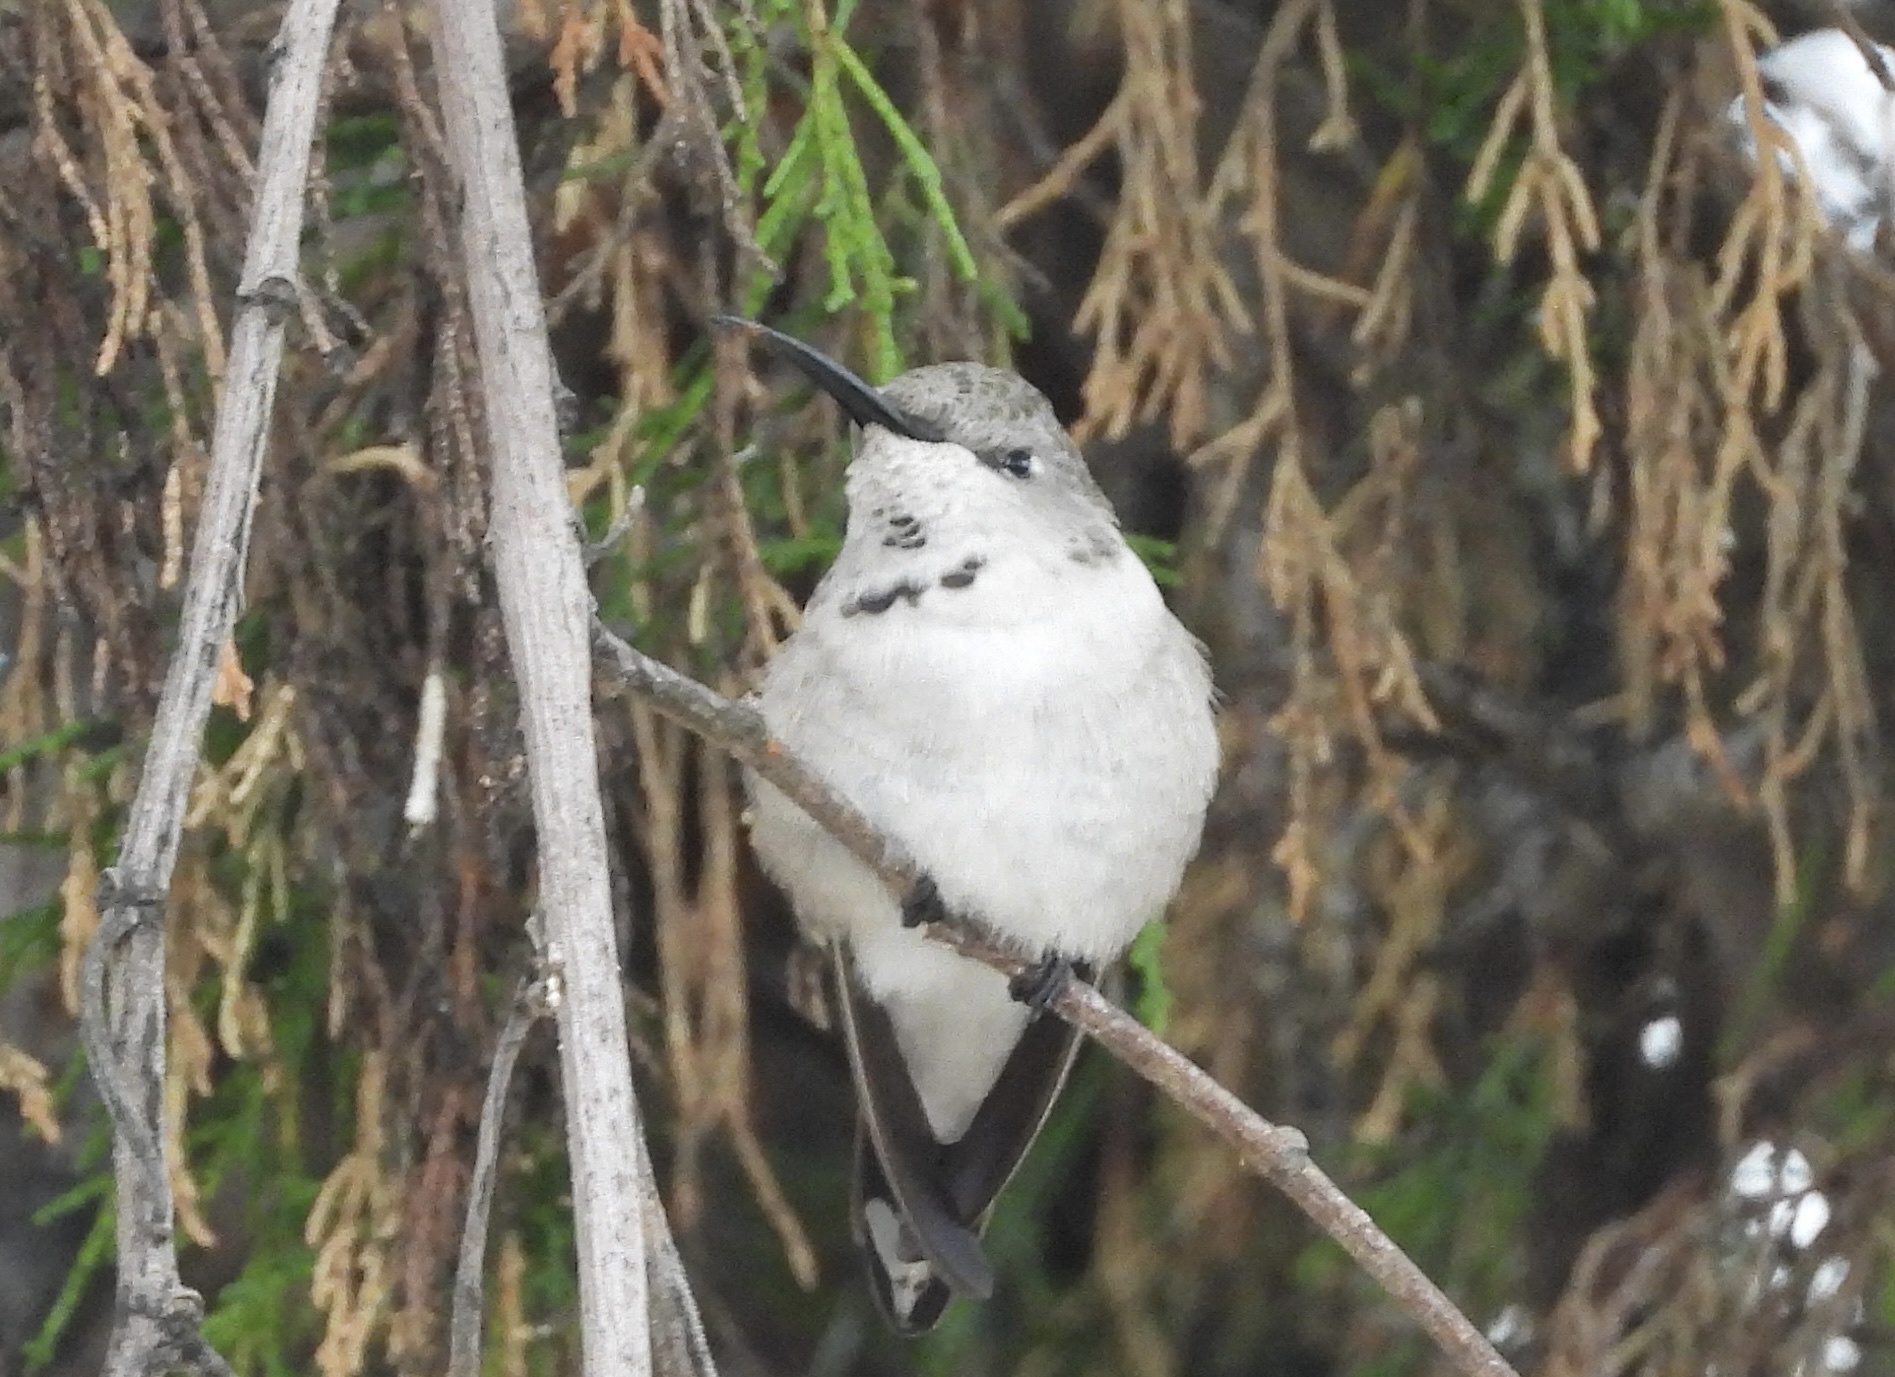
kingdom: Animalia
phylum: Chordata
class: Aves
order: Apodiformes
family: Trochilidae
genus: Rhodopis
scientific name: Rhodopis vesper
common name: Oasis hummingbird
